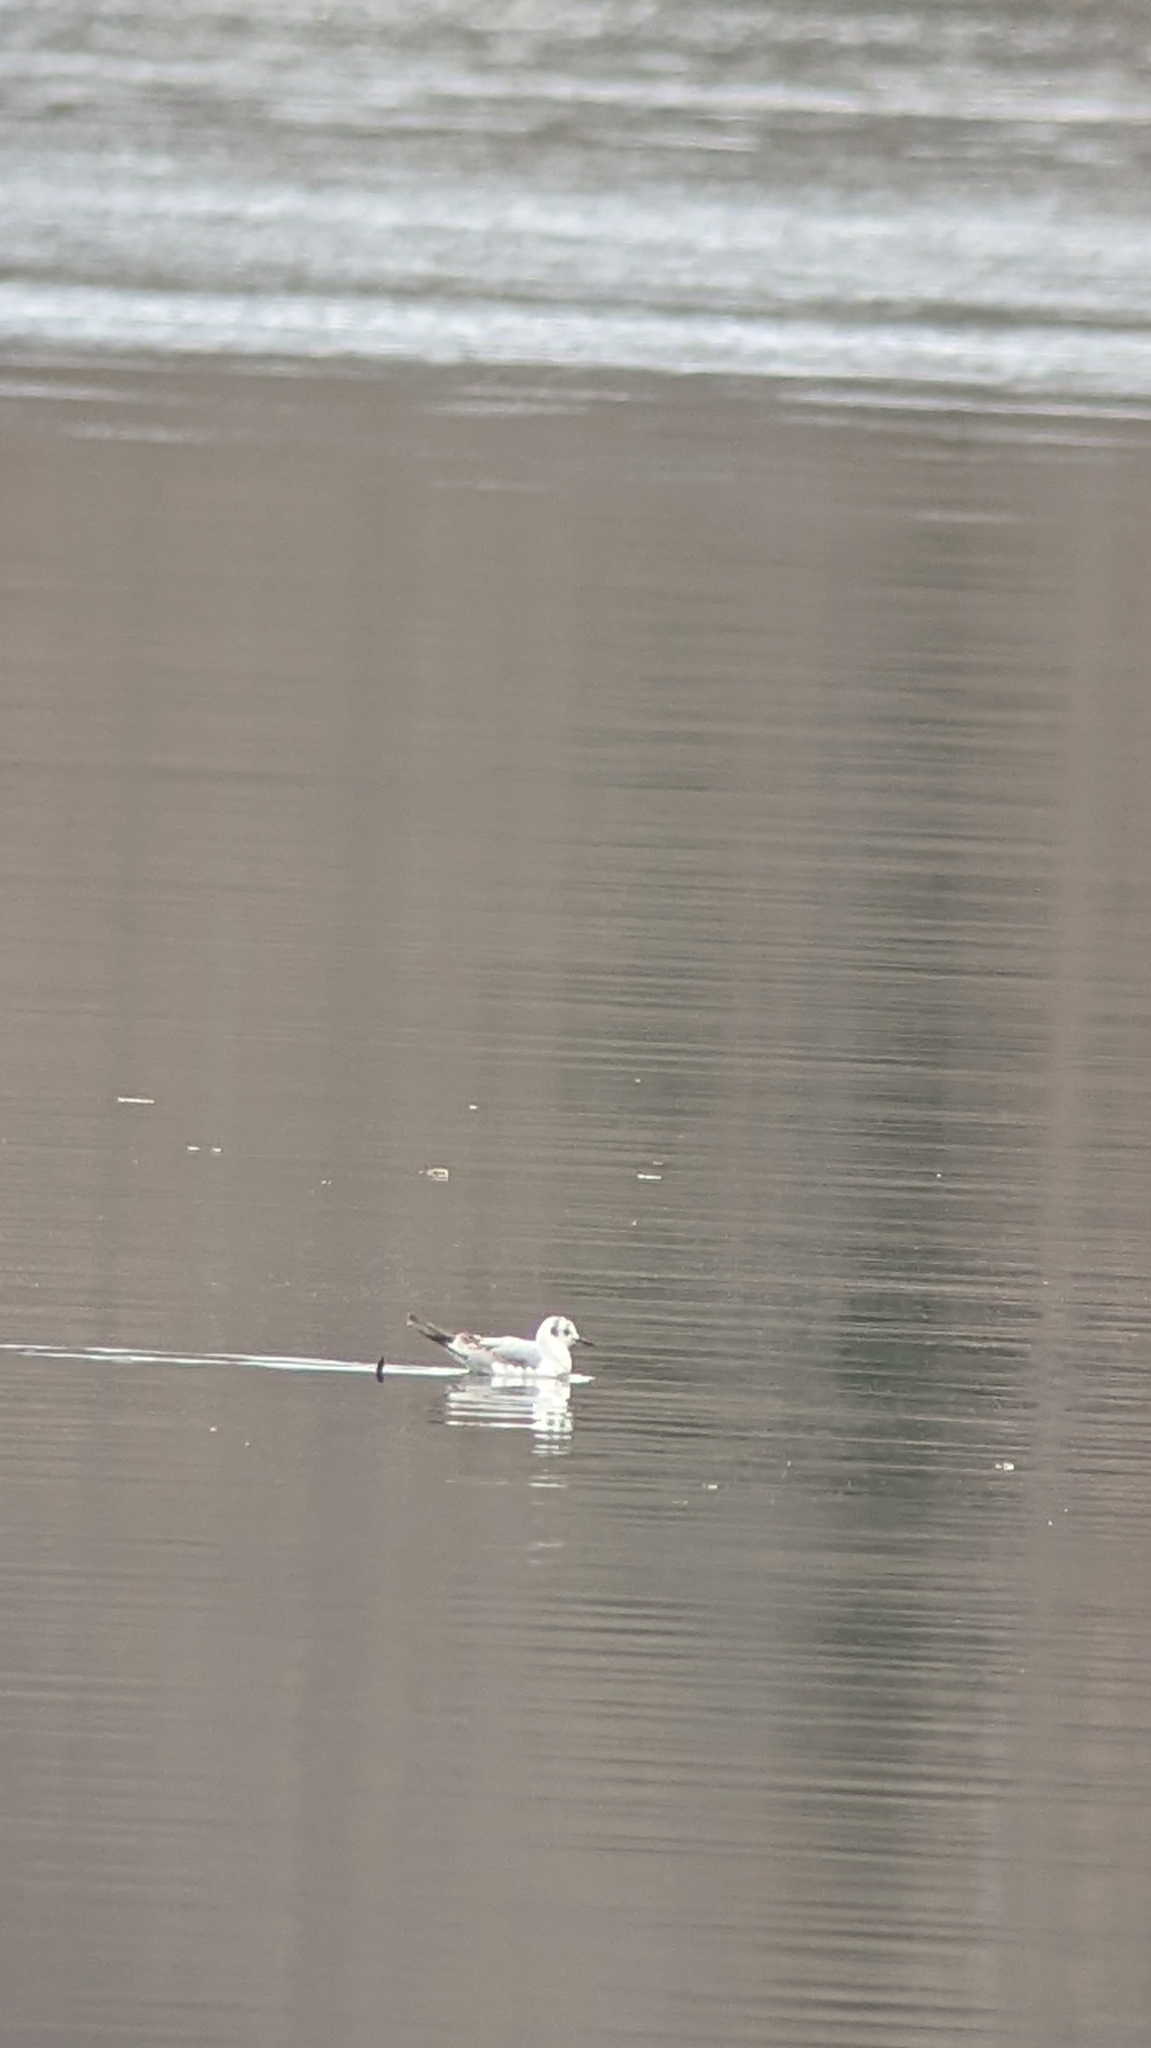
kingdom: Animalia
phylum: Chordata
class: Aves
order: Charadriiformes
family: Laridae
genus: Chroicocephalus
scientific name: Chroicocephalus philadelphia
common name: Bonaparte's gull
